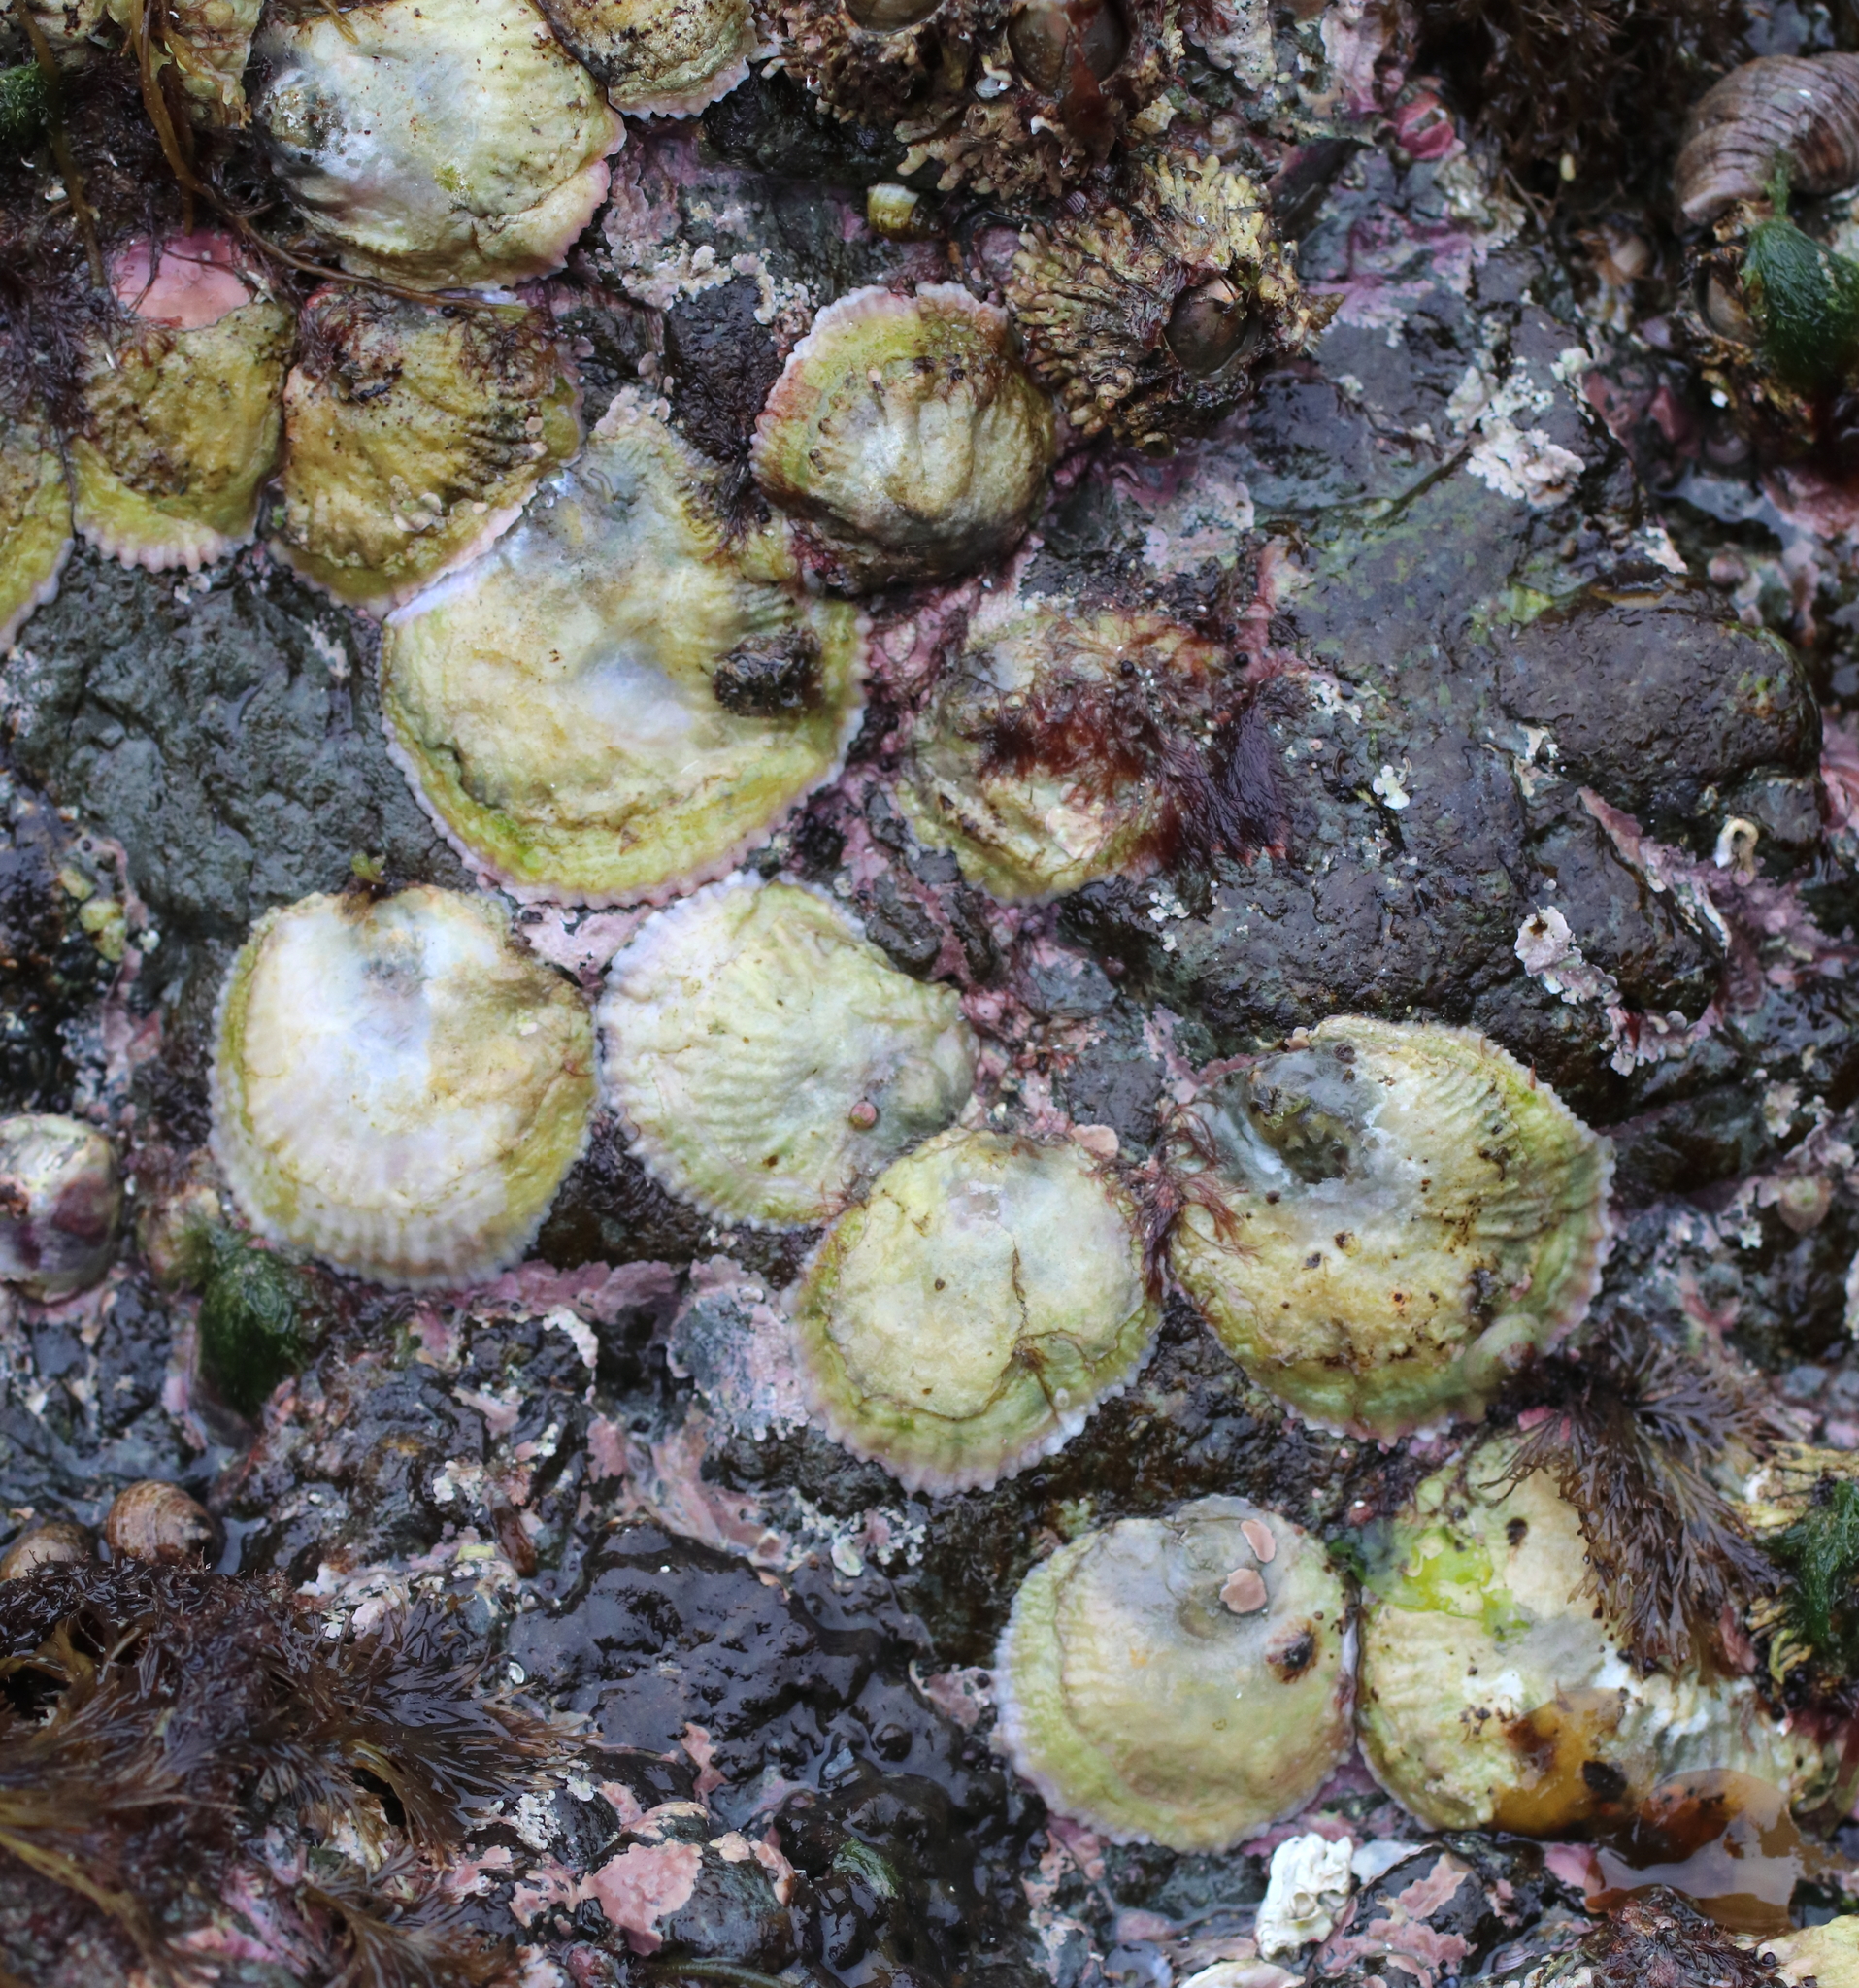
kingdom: Animalia
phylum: Mollusca
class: Bivalvia
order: Pectinida
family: Anomiidae
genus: Pododesmus
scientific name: Pododesmus macrochisma
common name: Alaska jingle
